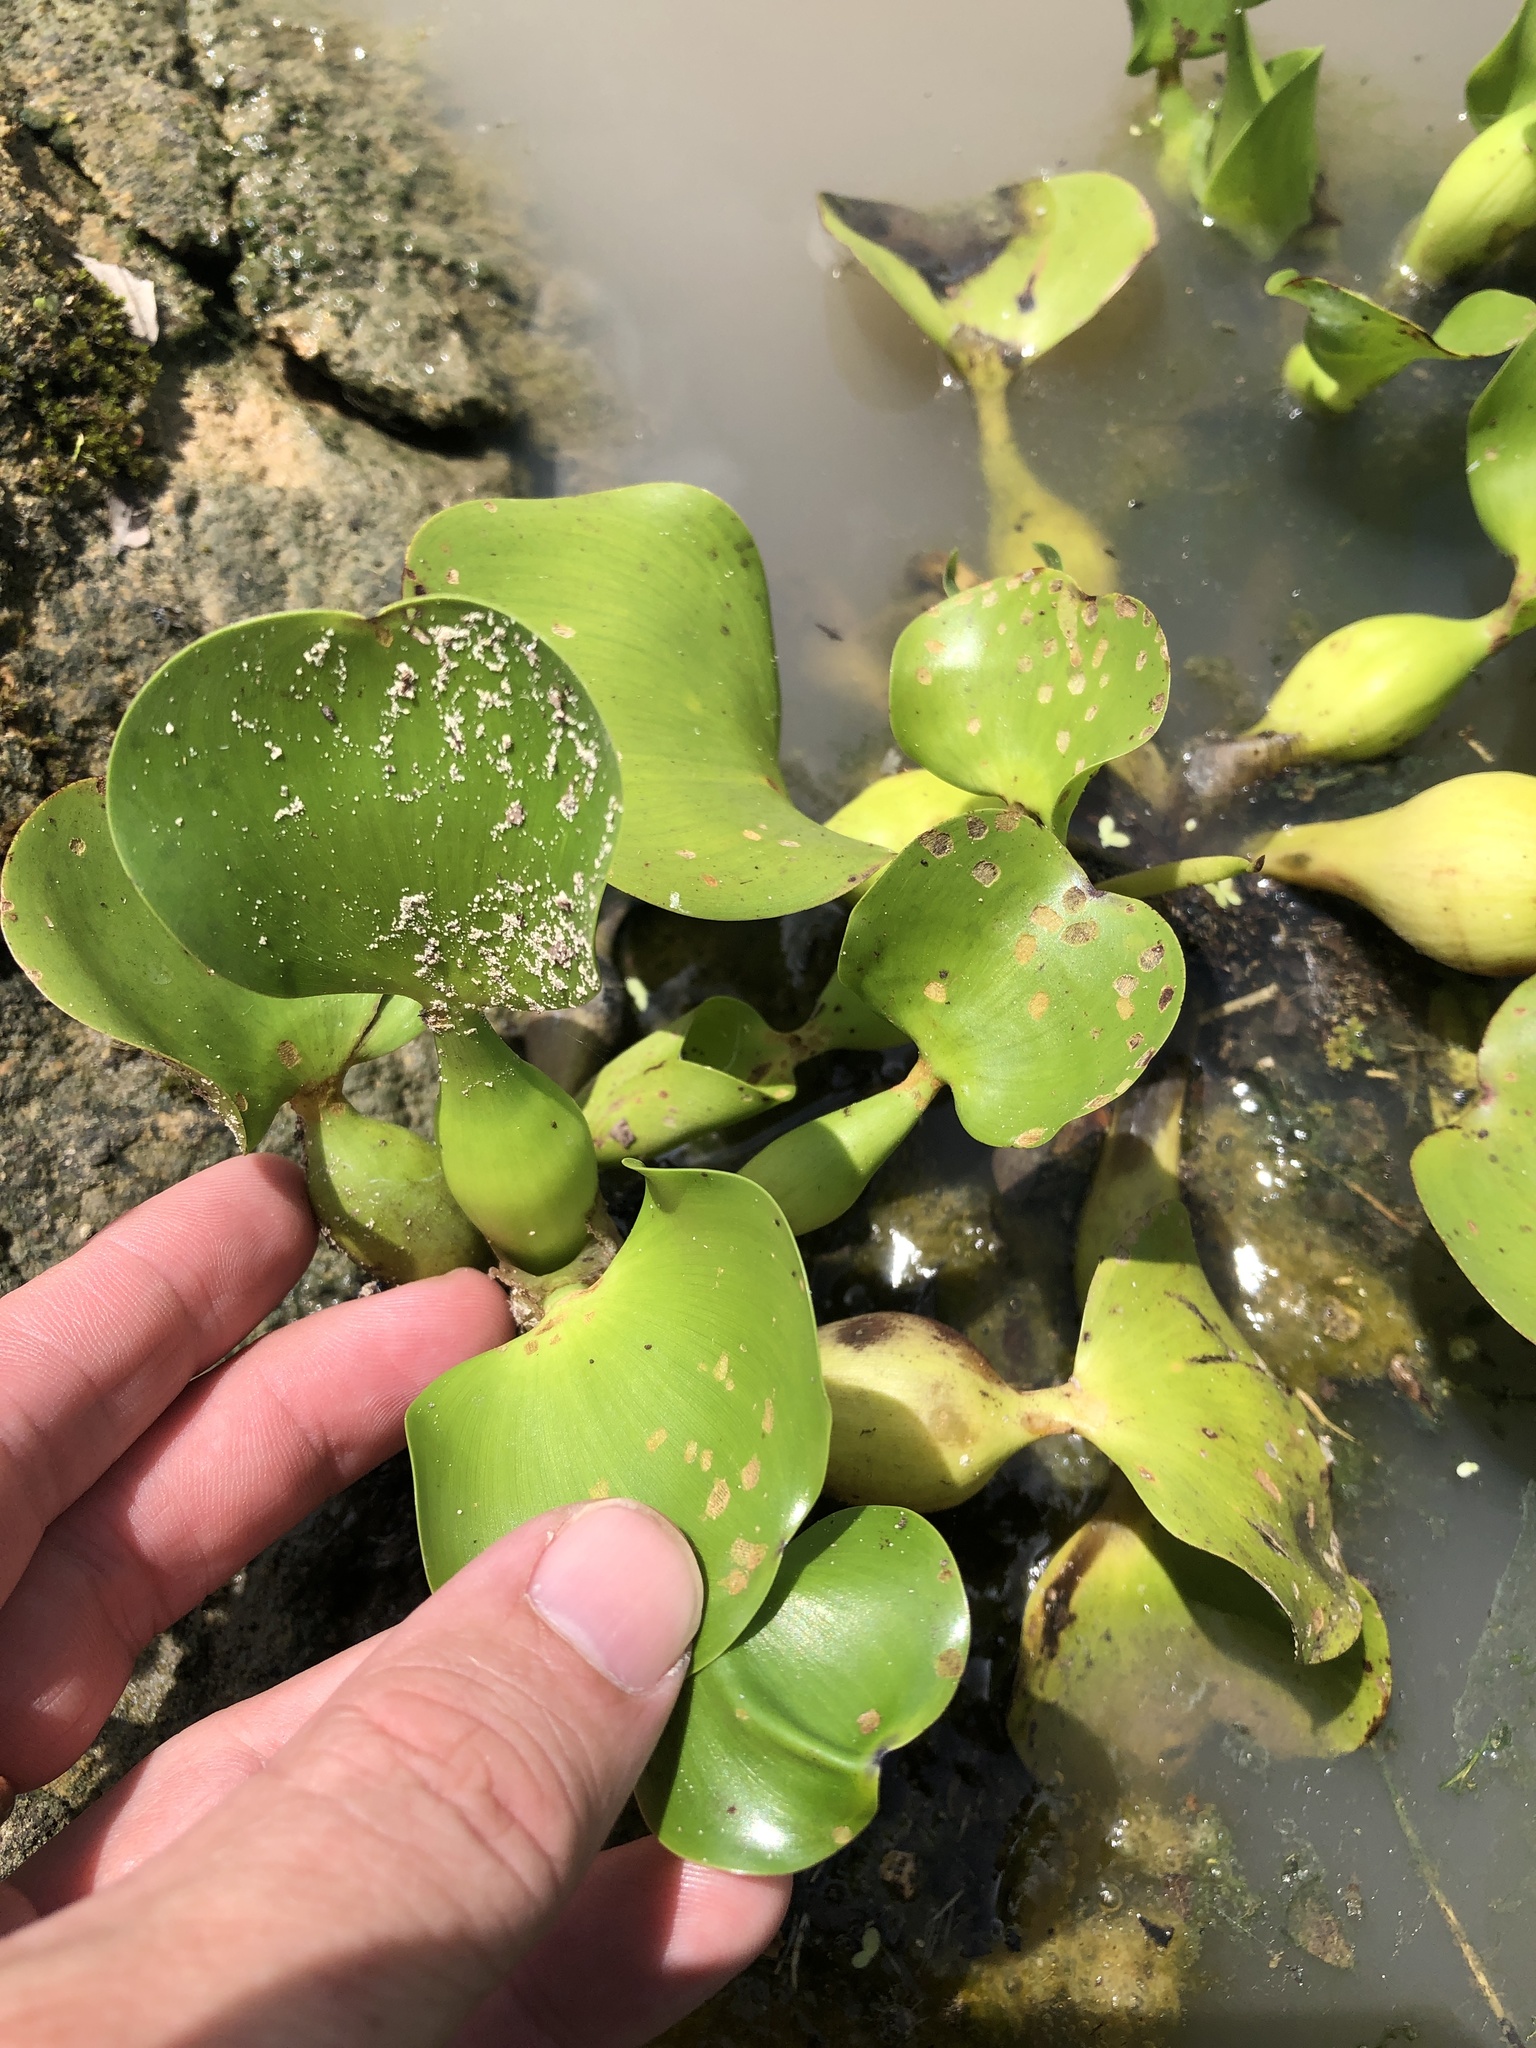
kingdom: Plantae
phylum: Tracheophyta
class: Liliopsida
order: Commelinales
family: Pontederiaceae
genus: Pontederia
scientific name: Pontederia crassipes
